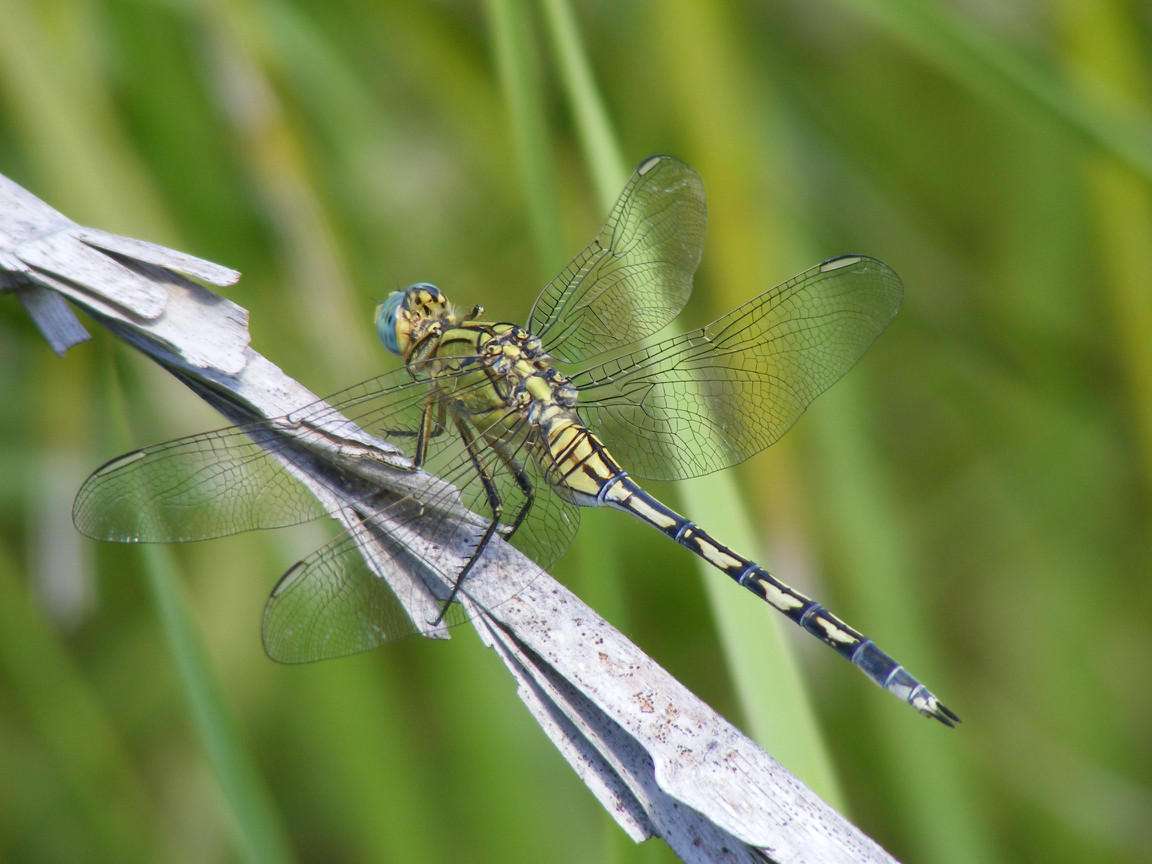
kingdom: Animalia
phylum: Arthropoda
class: Insecta
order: Odonata
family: Libellulidae
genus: Orthetrum
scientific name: Orthetrum trinacria
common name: Long skimmer
